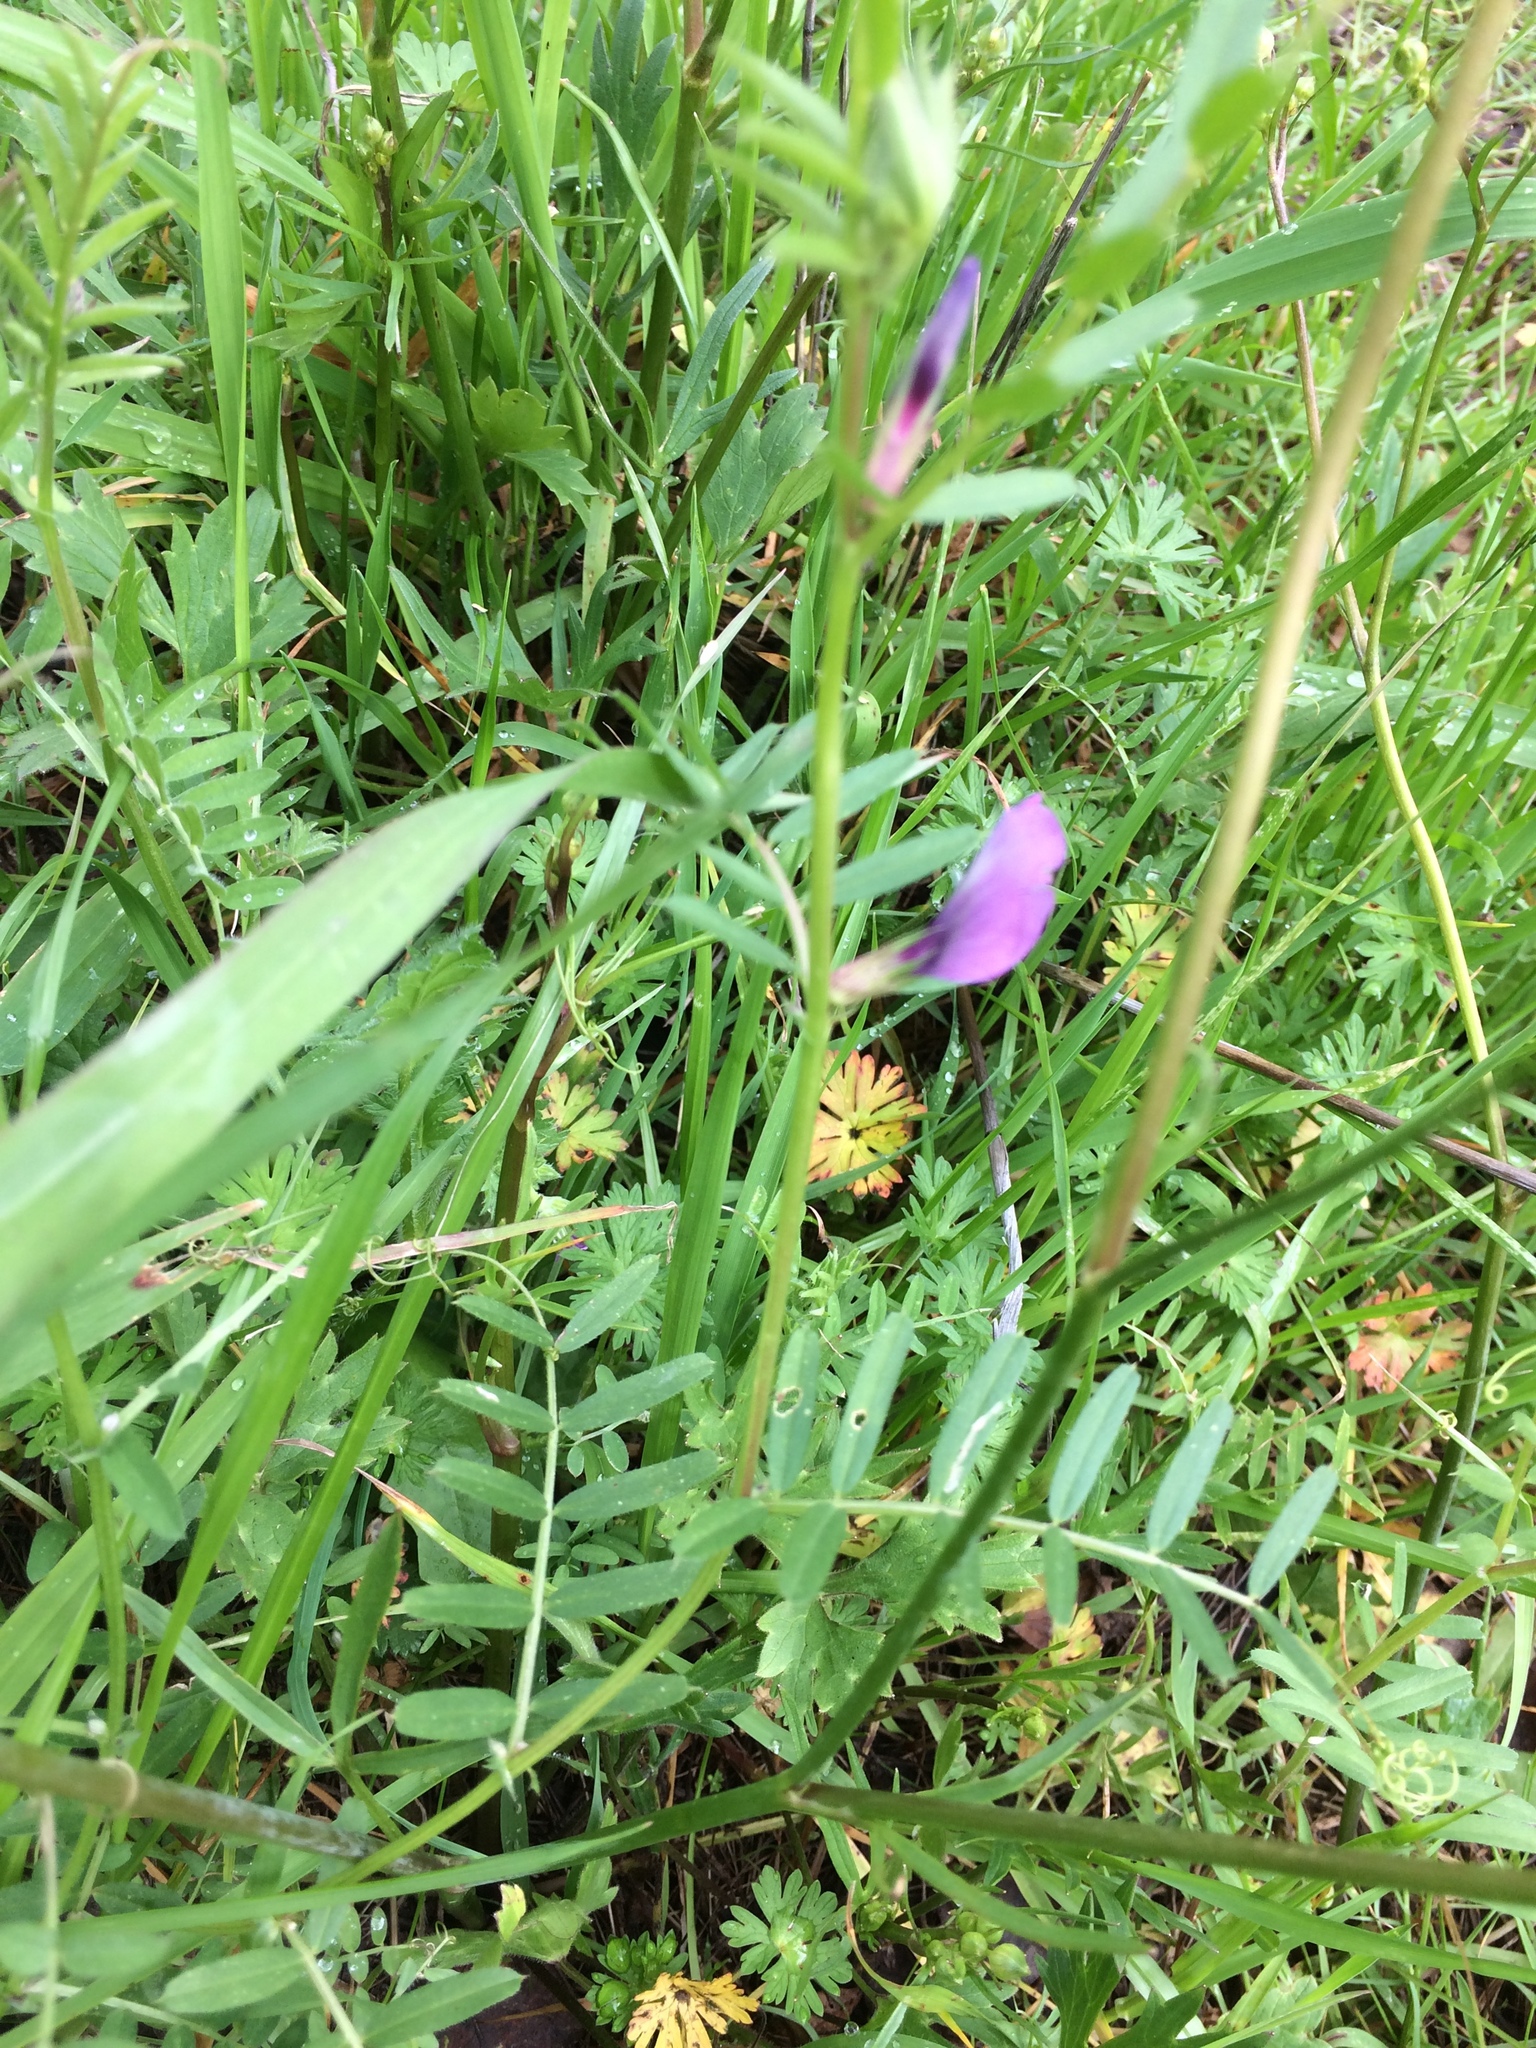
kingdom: Plantae
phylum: Tracheophyta
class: Magnoliopsida
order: Fabales
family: Fabaceae
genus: Vicia
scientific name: Vicia sativa
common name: Garden vetch
